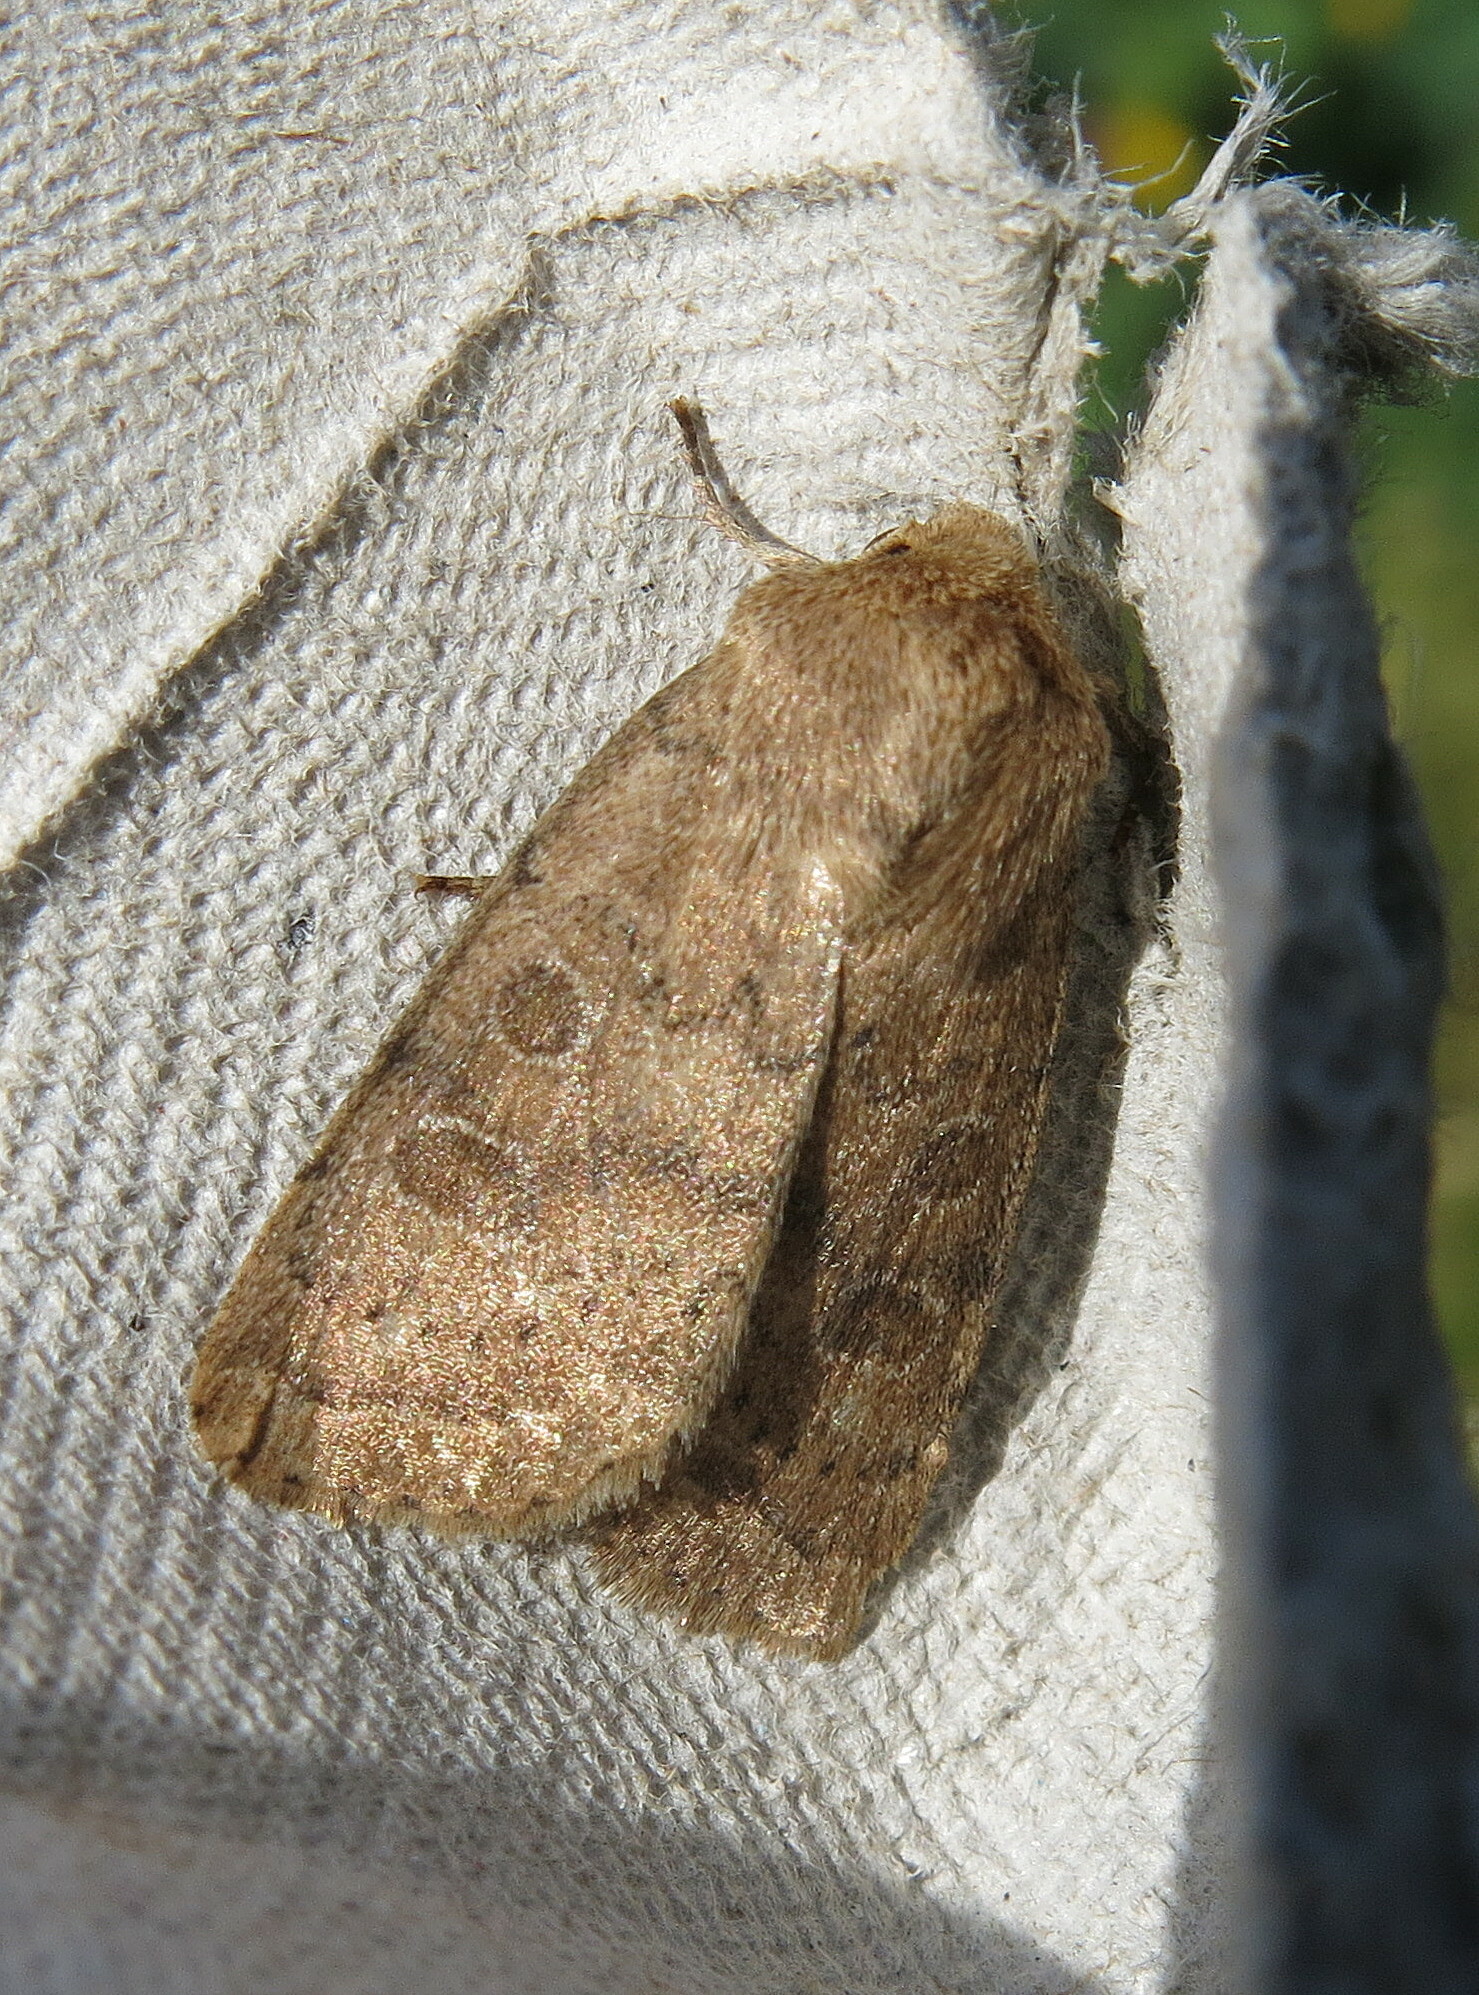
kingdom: Animalia
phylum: Arthropoda
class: Insecta
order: Lepidoptera
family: Noctuidae
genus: Hoplodrina
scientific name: Hoplodrina octogenaria
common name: Uncertain
